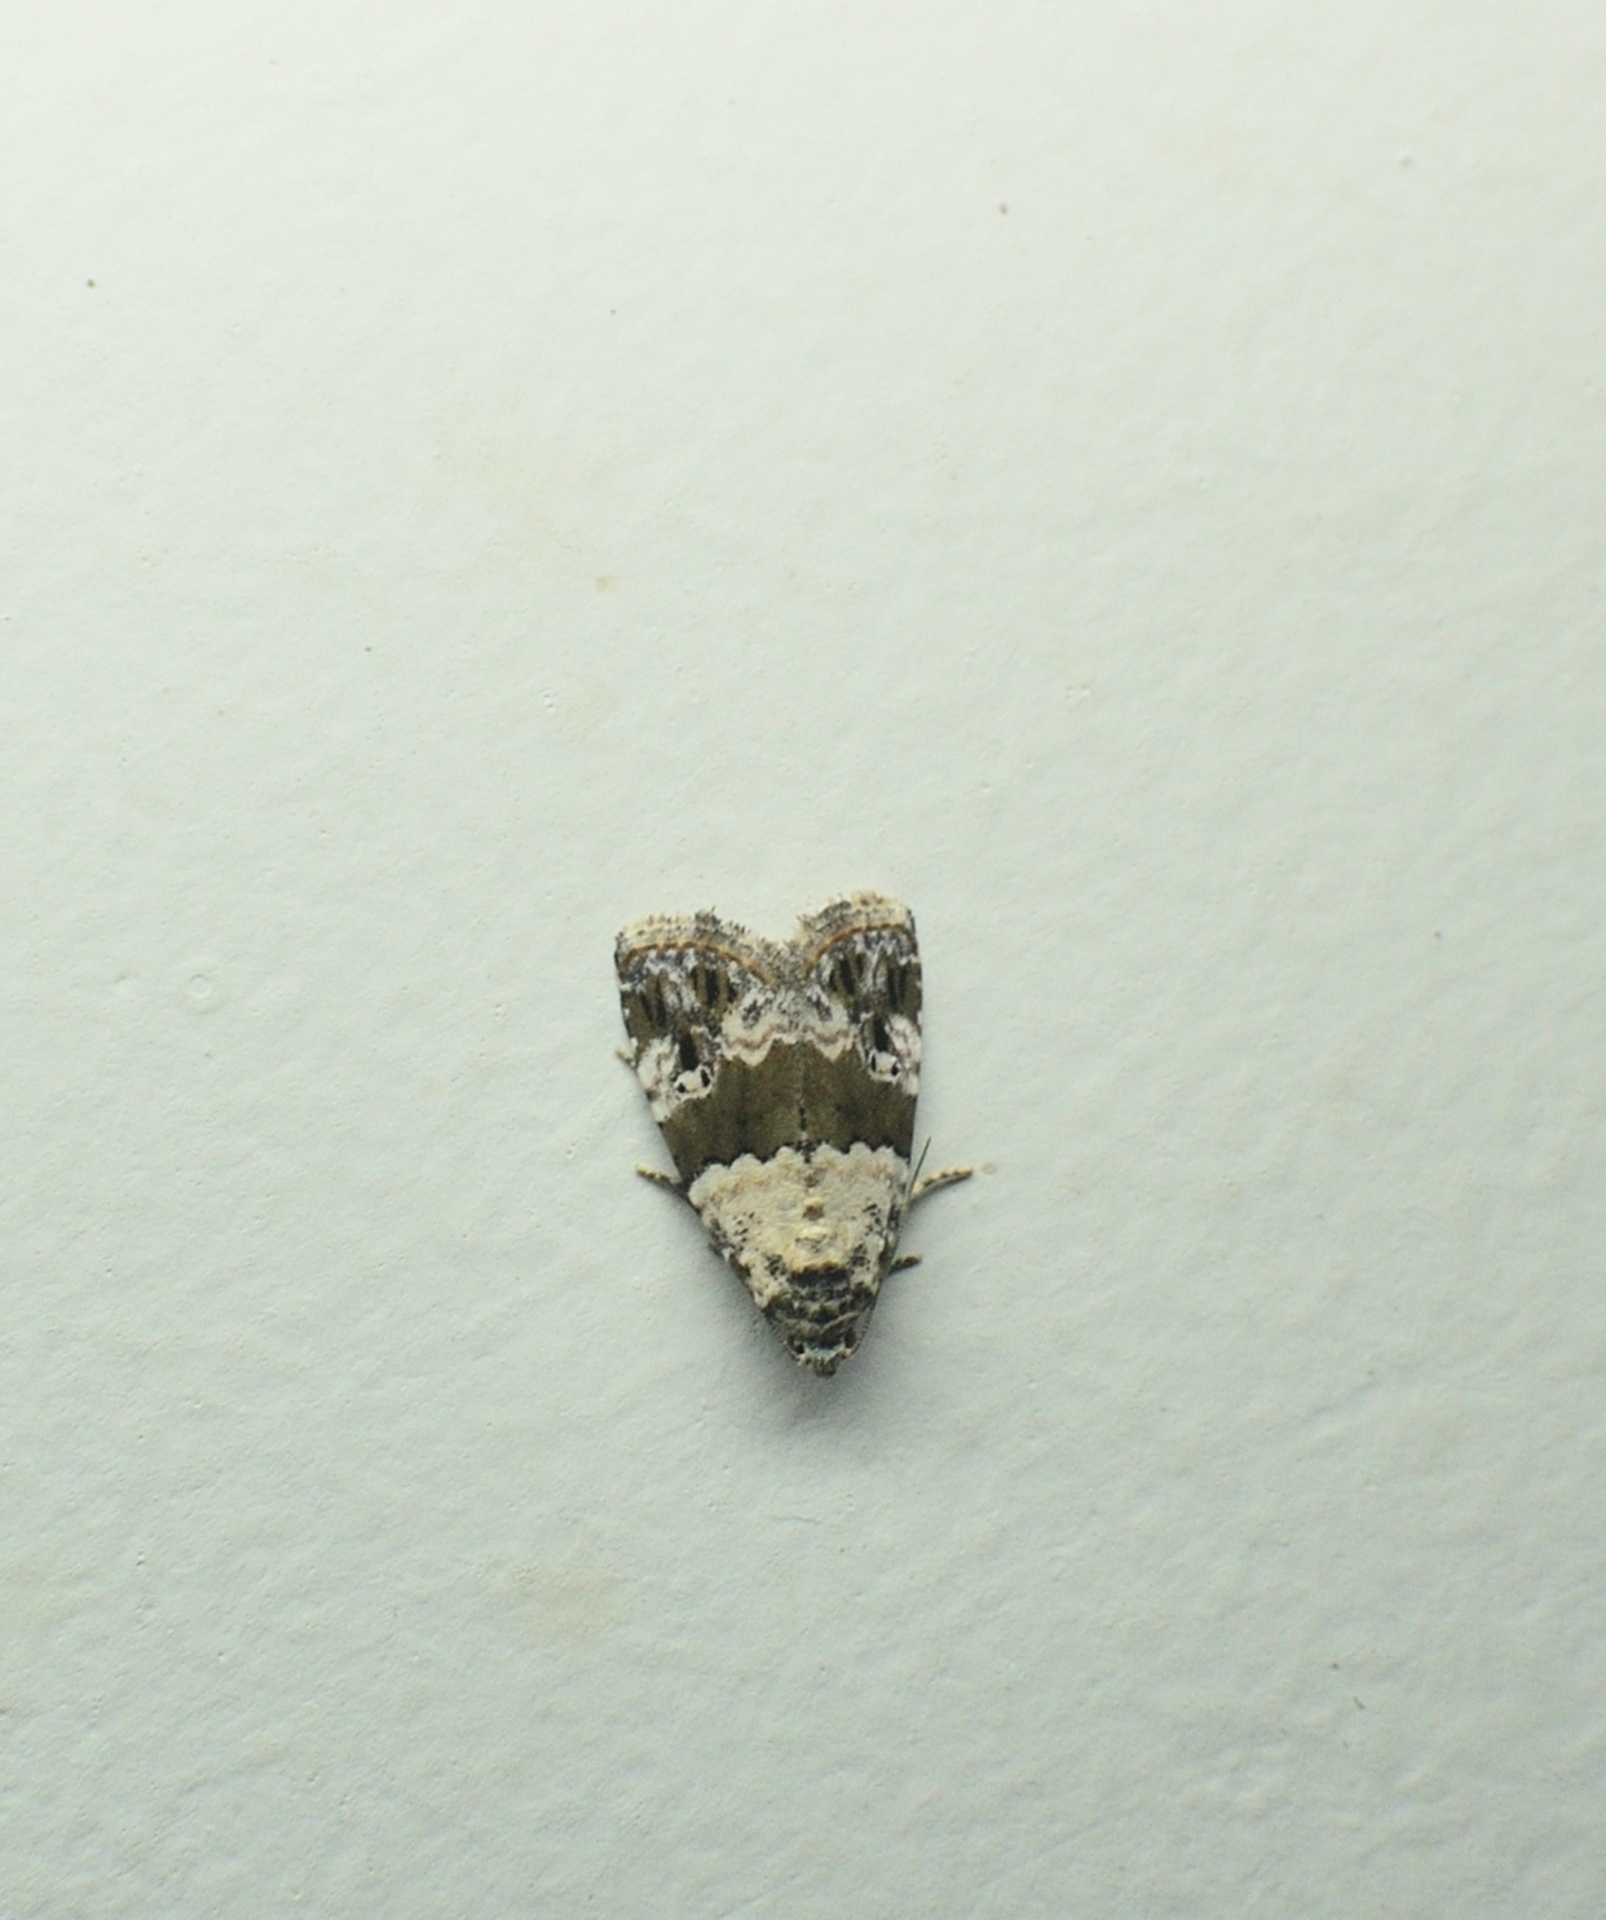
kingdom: Animalia
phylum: Arthropoda
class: Insecta
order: Lepidoptera
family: Noctuidae
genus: Maliattha
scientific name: Maliattha signifera
